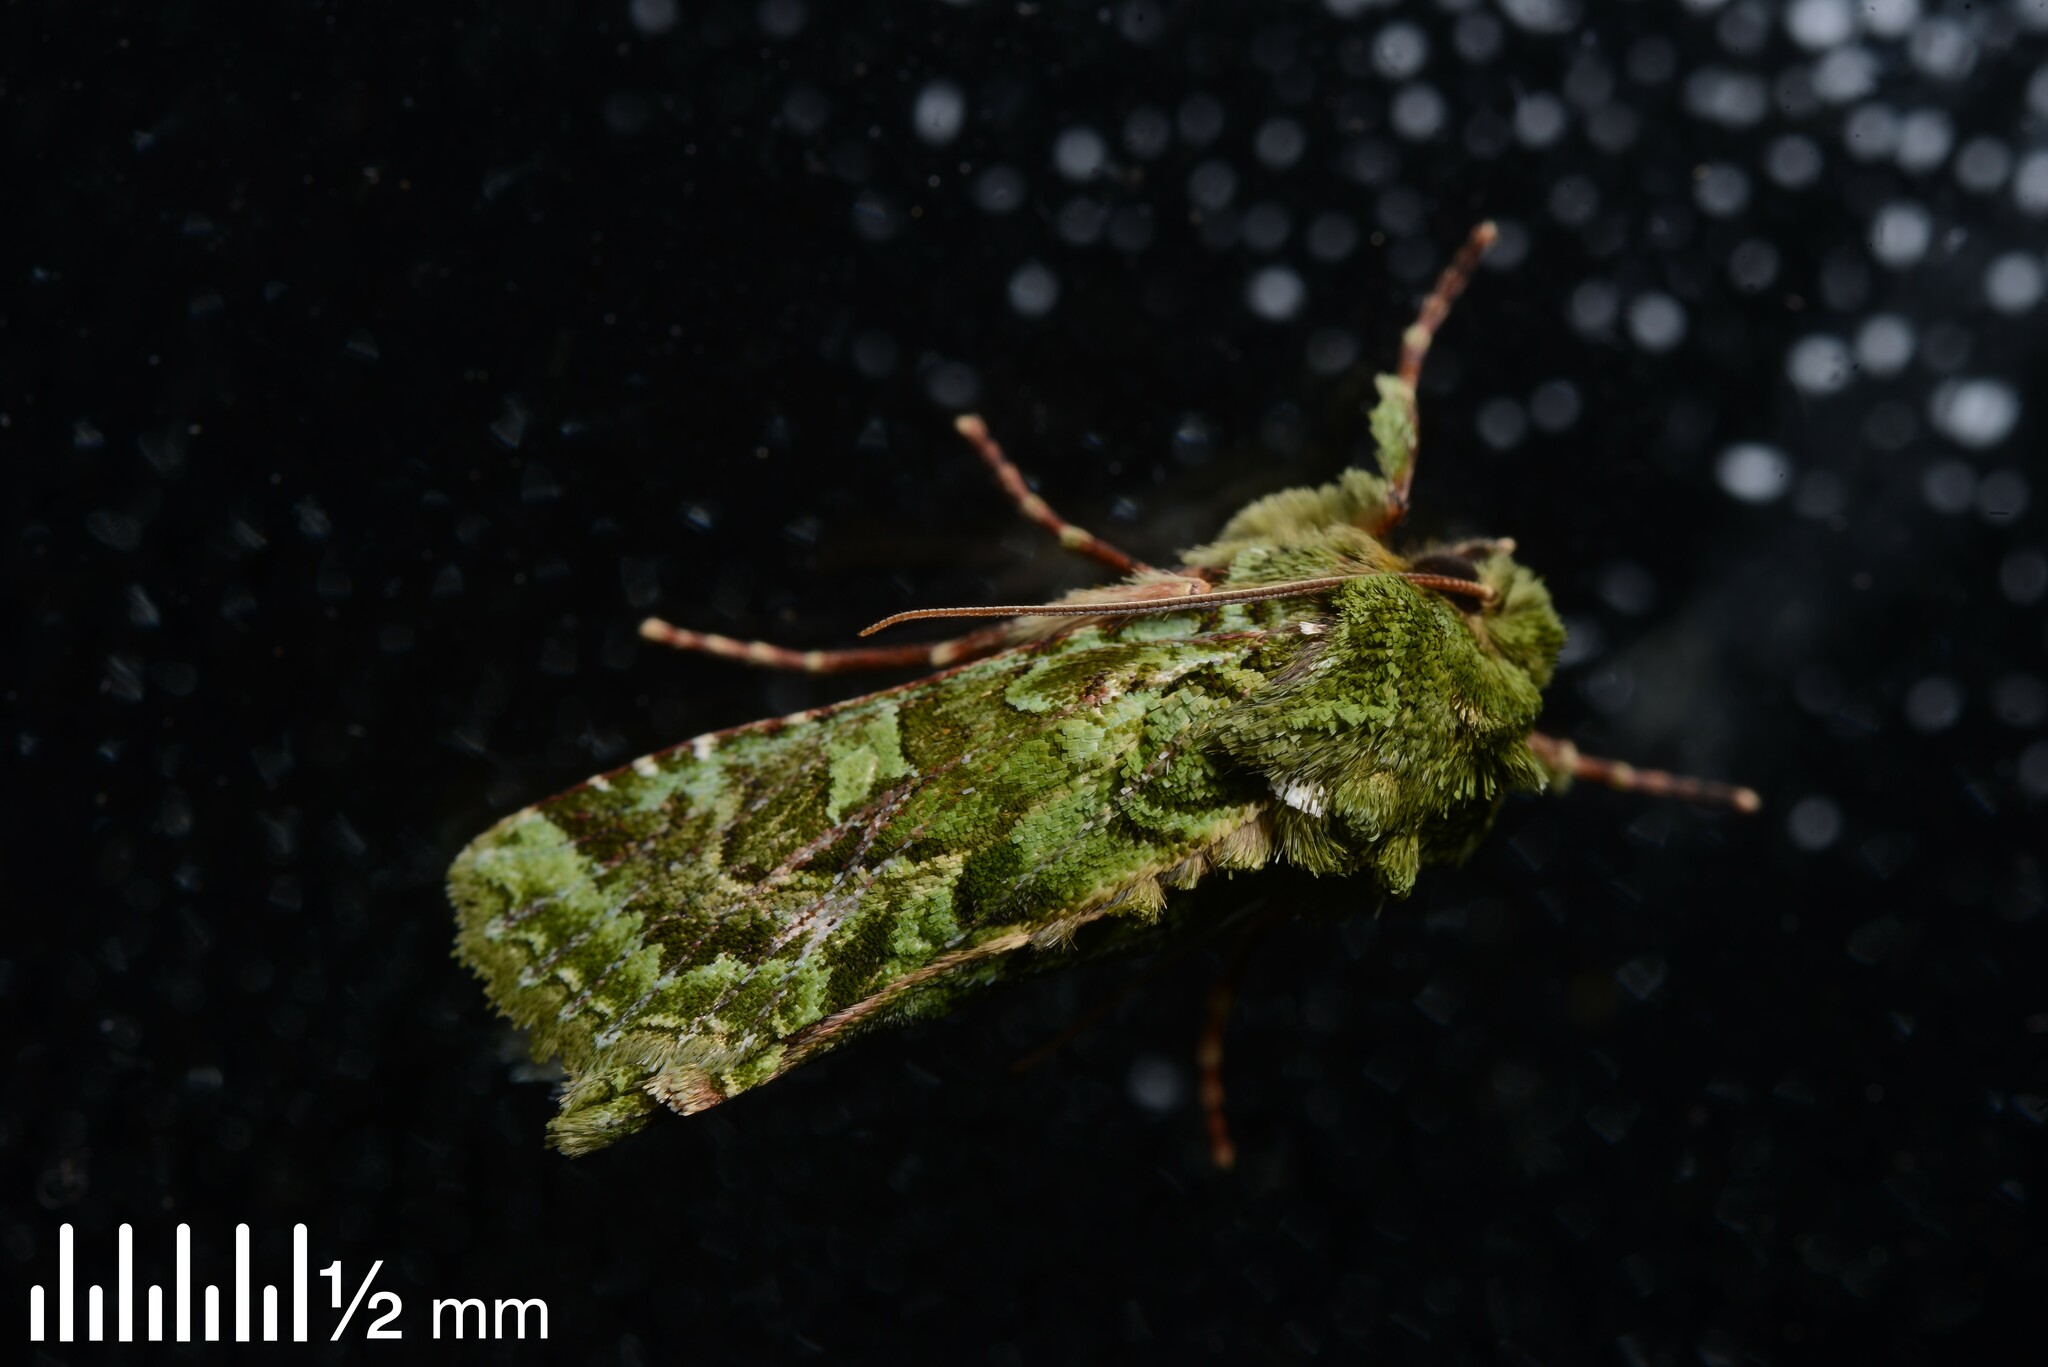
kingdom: Animalia
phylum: Arthropoda
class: Insecta
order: Lepidoptera
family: Noctuidae
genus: Feredayia
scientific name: Feredayia grammosa
